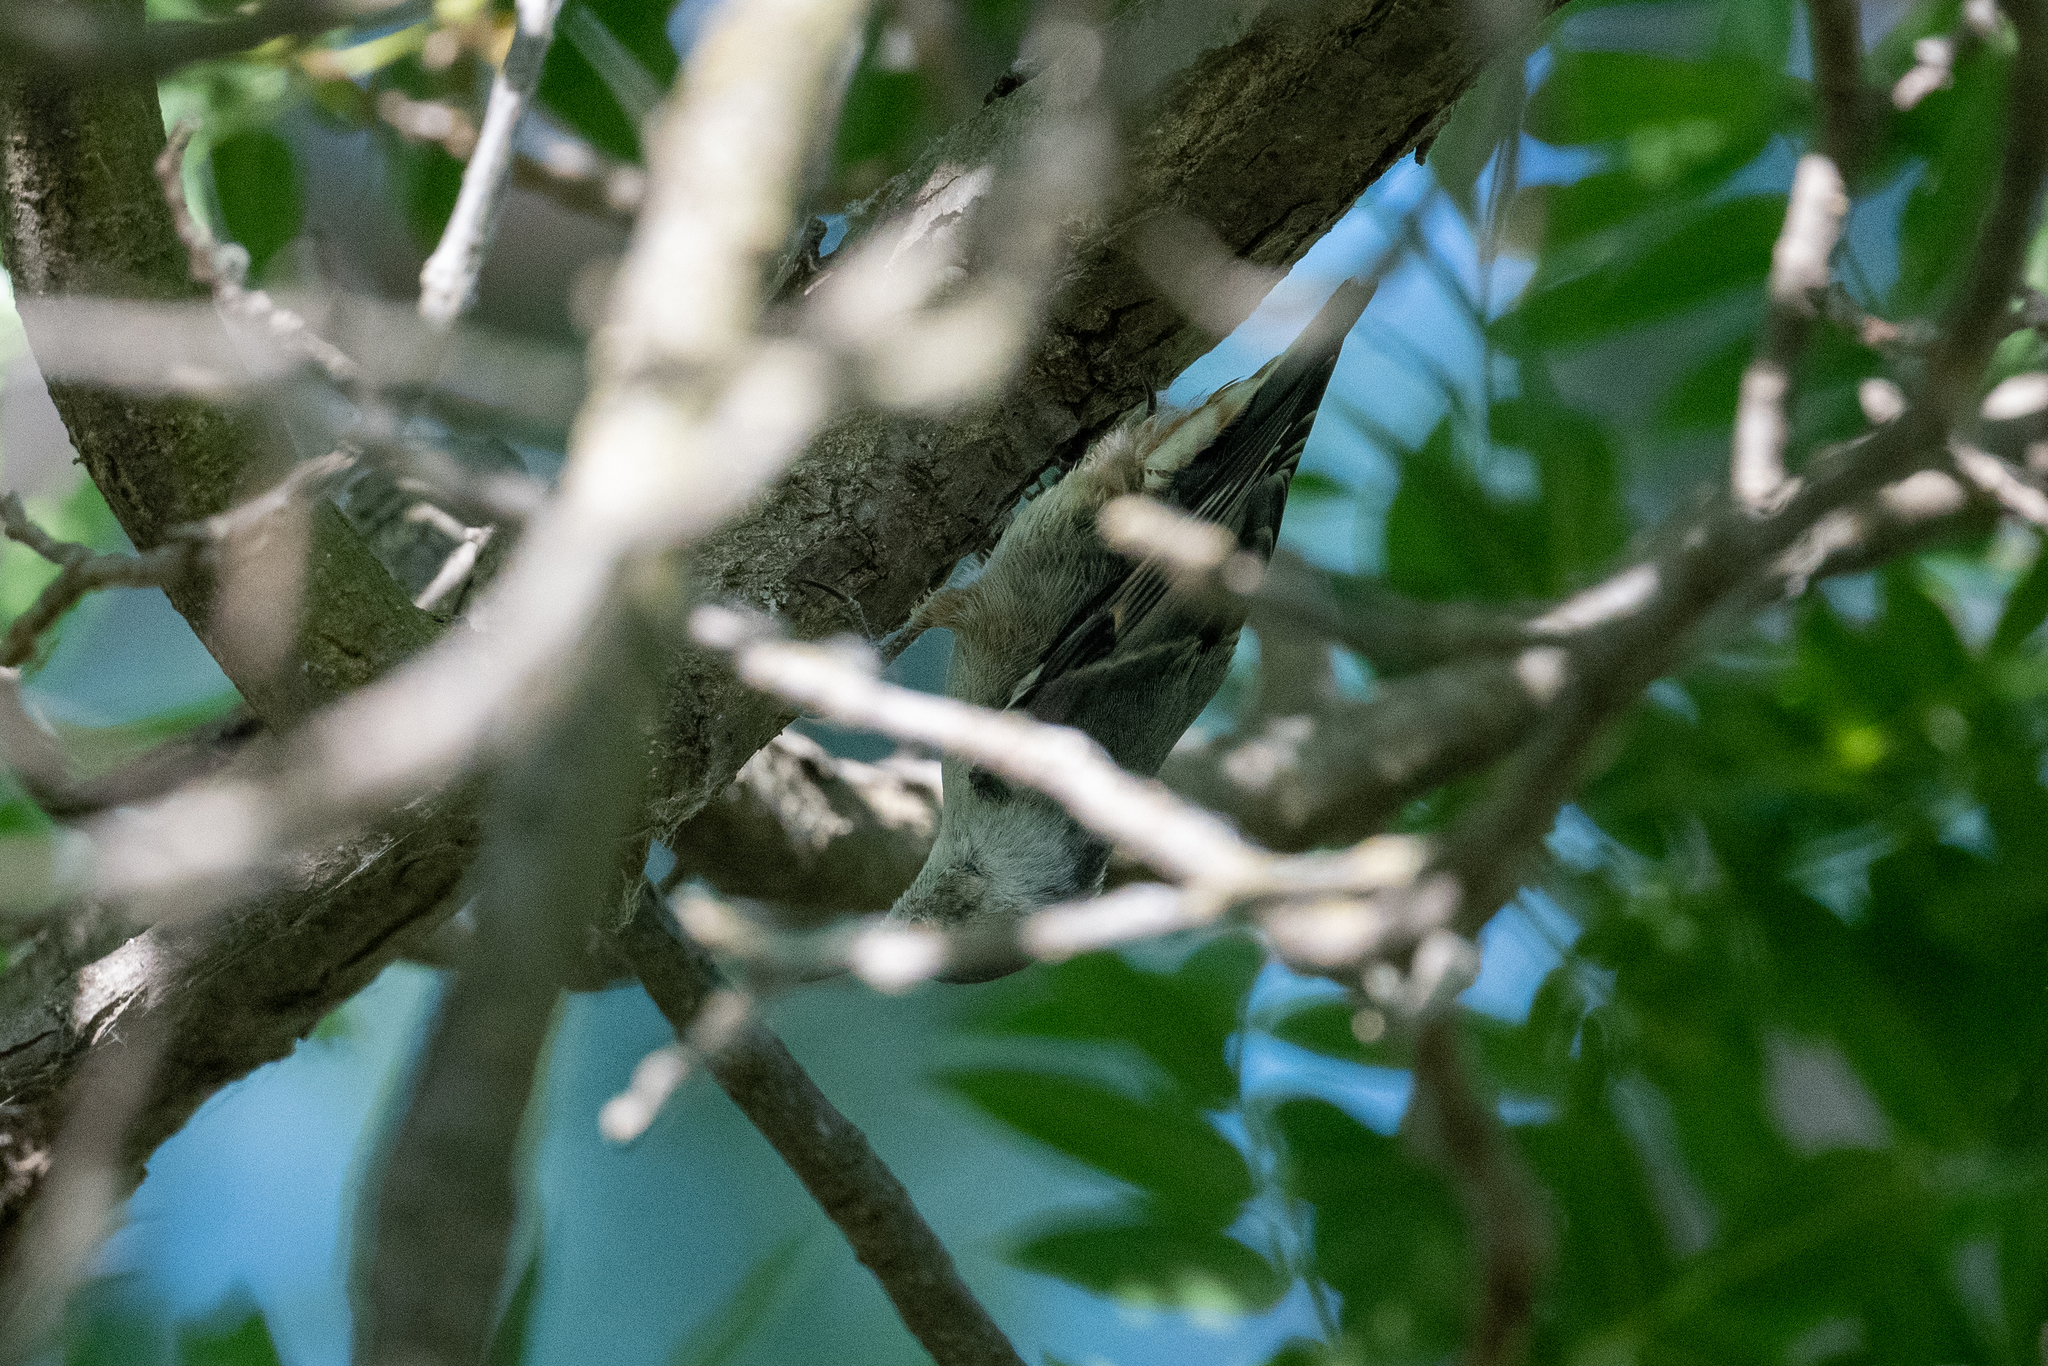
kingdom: Animalia
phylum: Chordata
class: Aves
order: Passeriformes
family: Sittidae
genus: Sitta
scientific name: Sitta carolinensis
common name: White-breasted nuthatch
